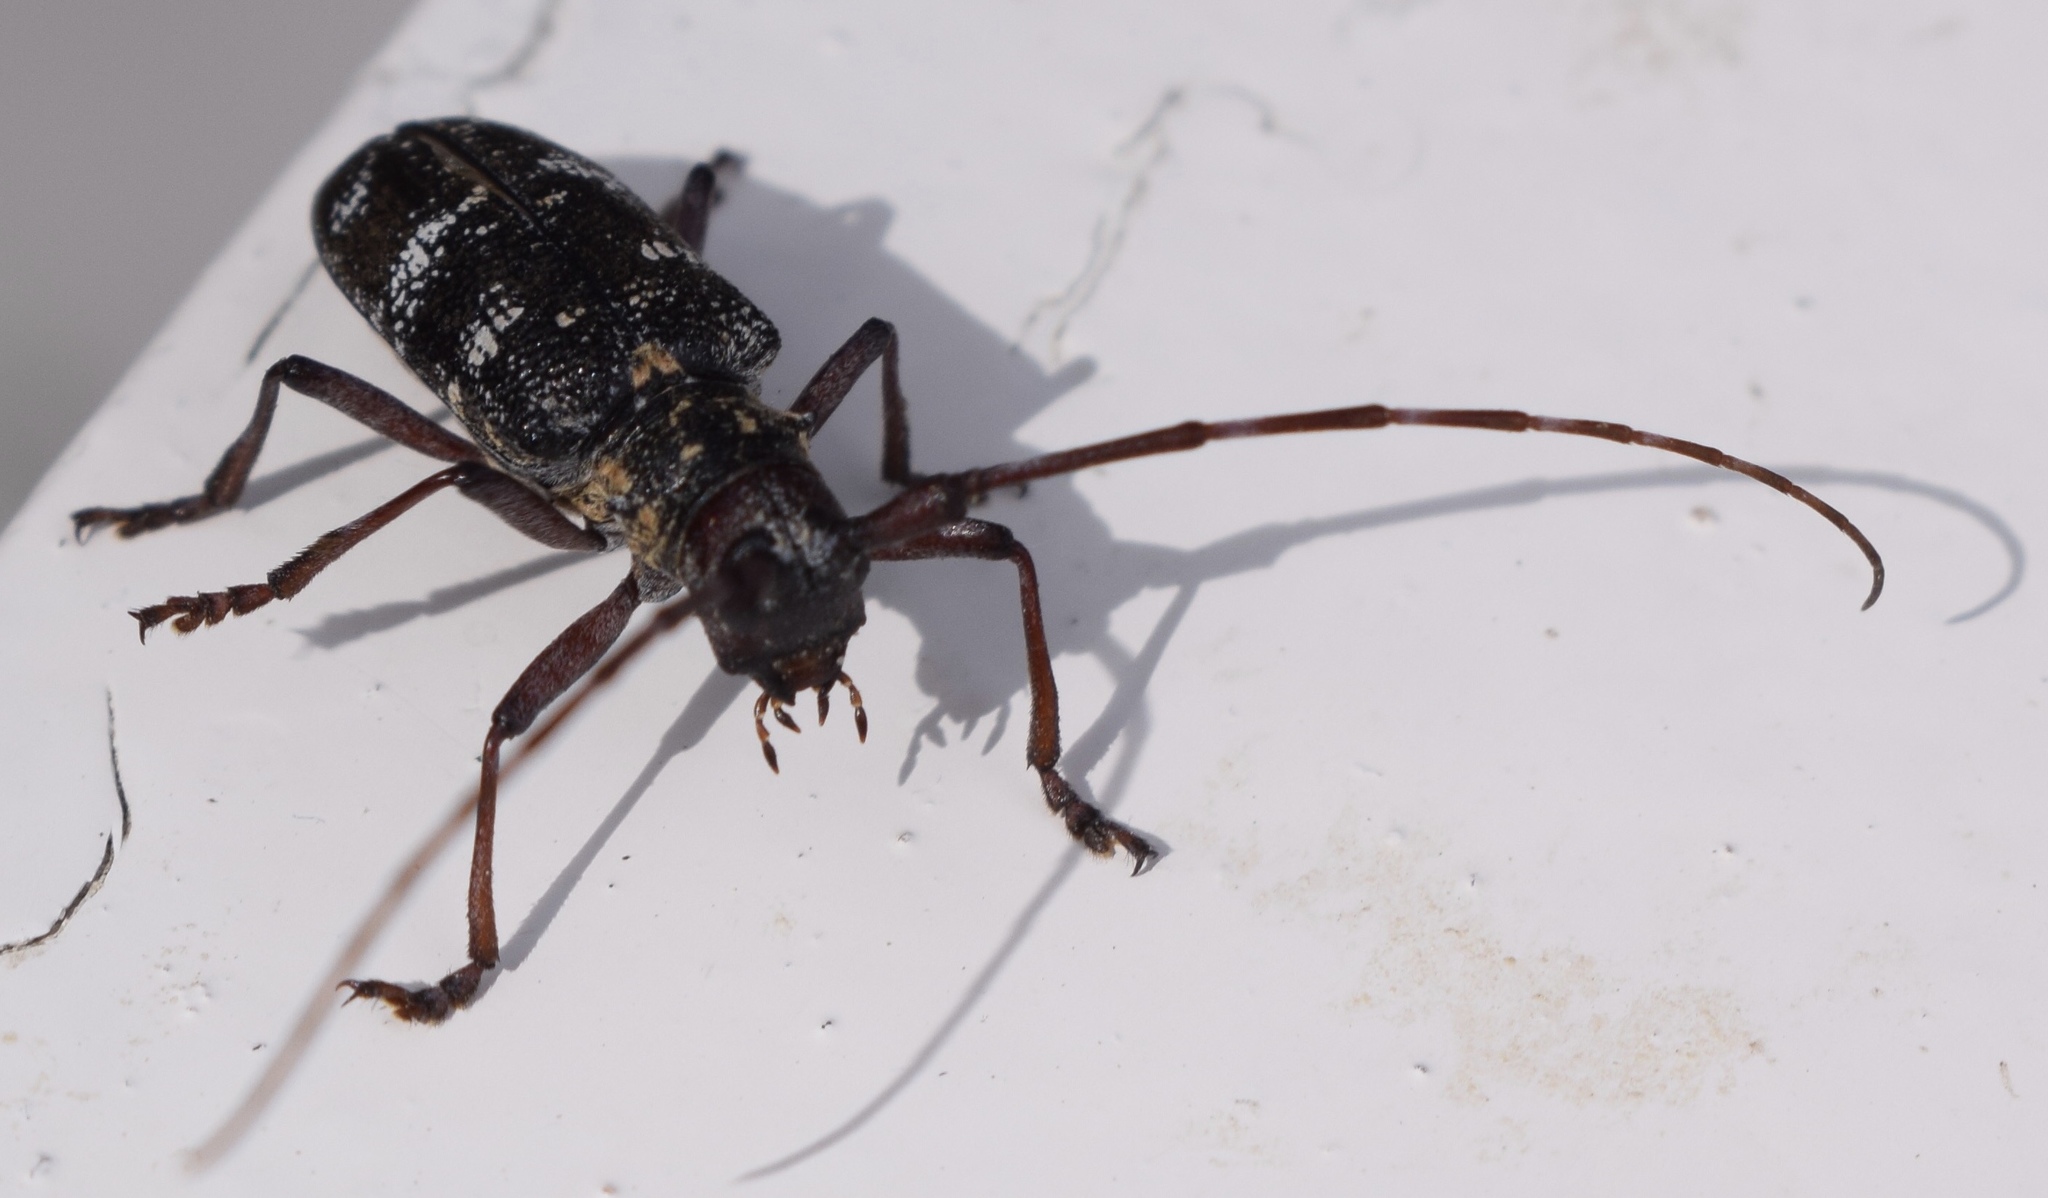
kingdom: Animalia
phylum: Arthropoda
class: Insecta
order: Coleoptera
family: Cerambycidae
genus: Monochamus
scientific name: Monochamus galloprovincialis
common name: Pine sawyer
